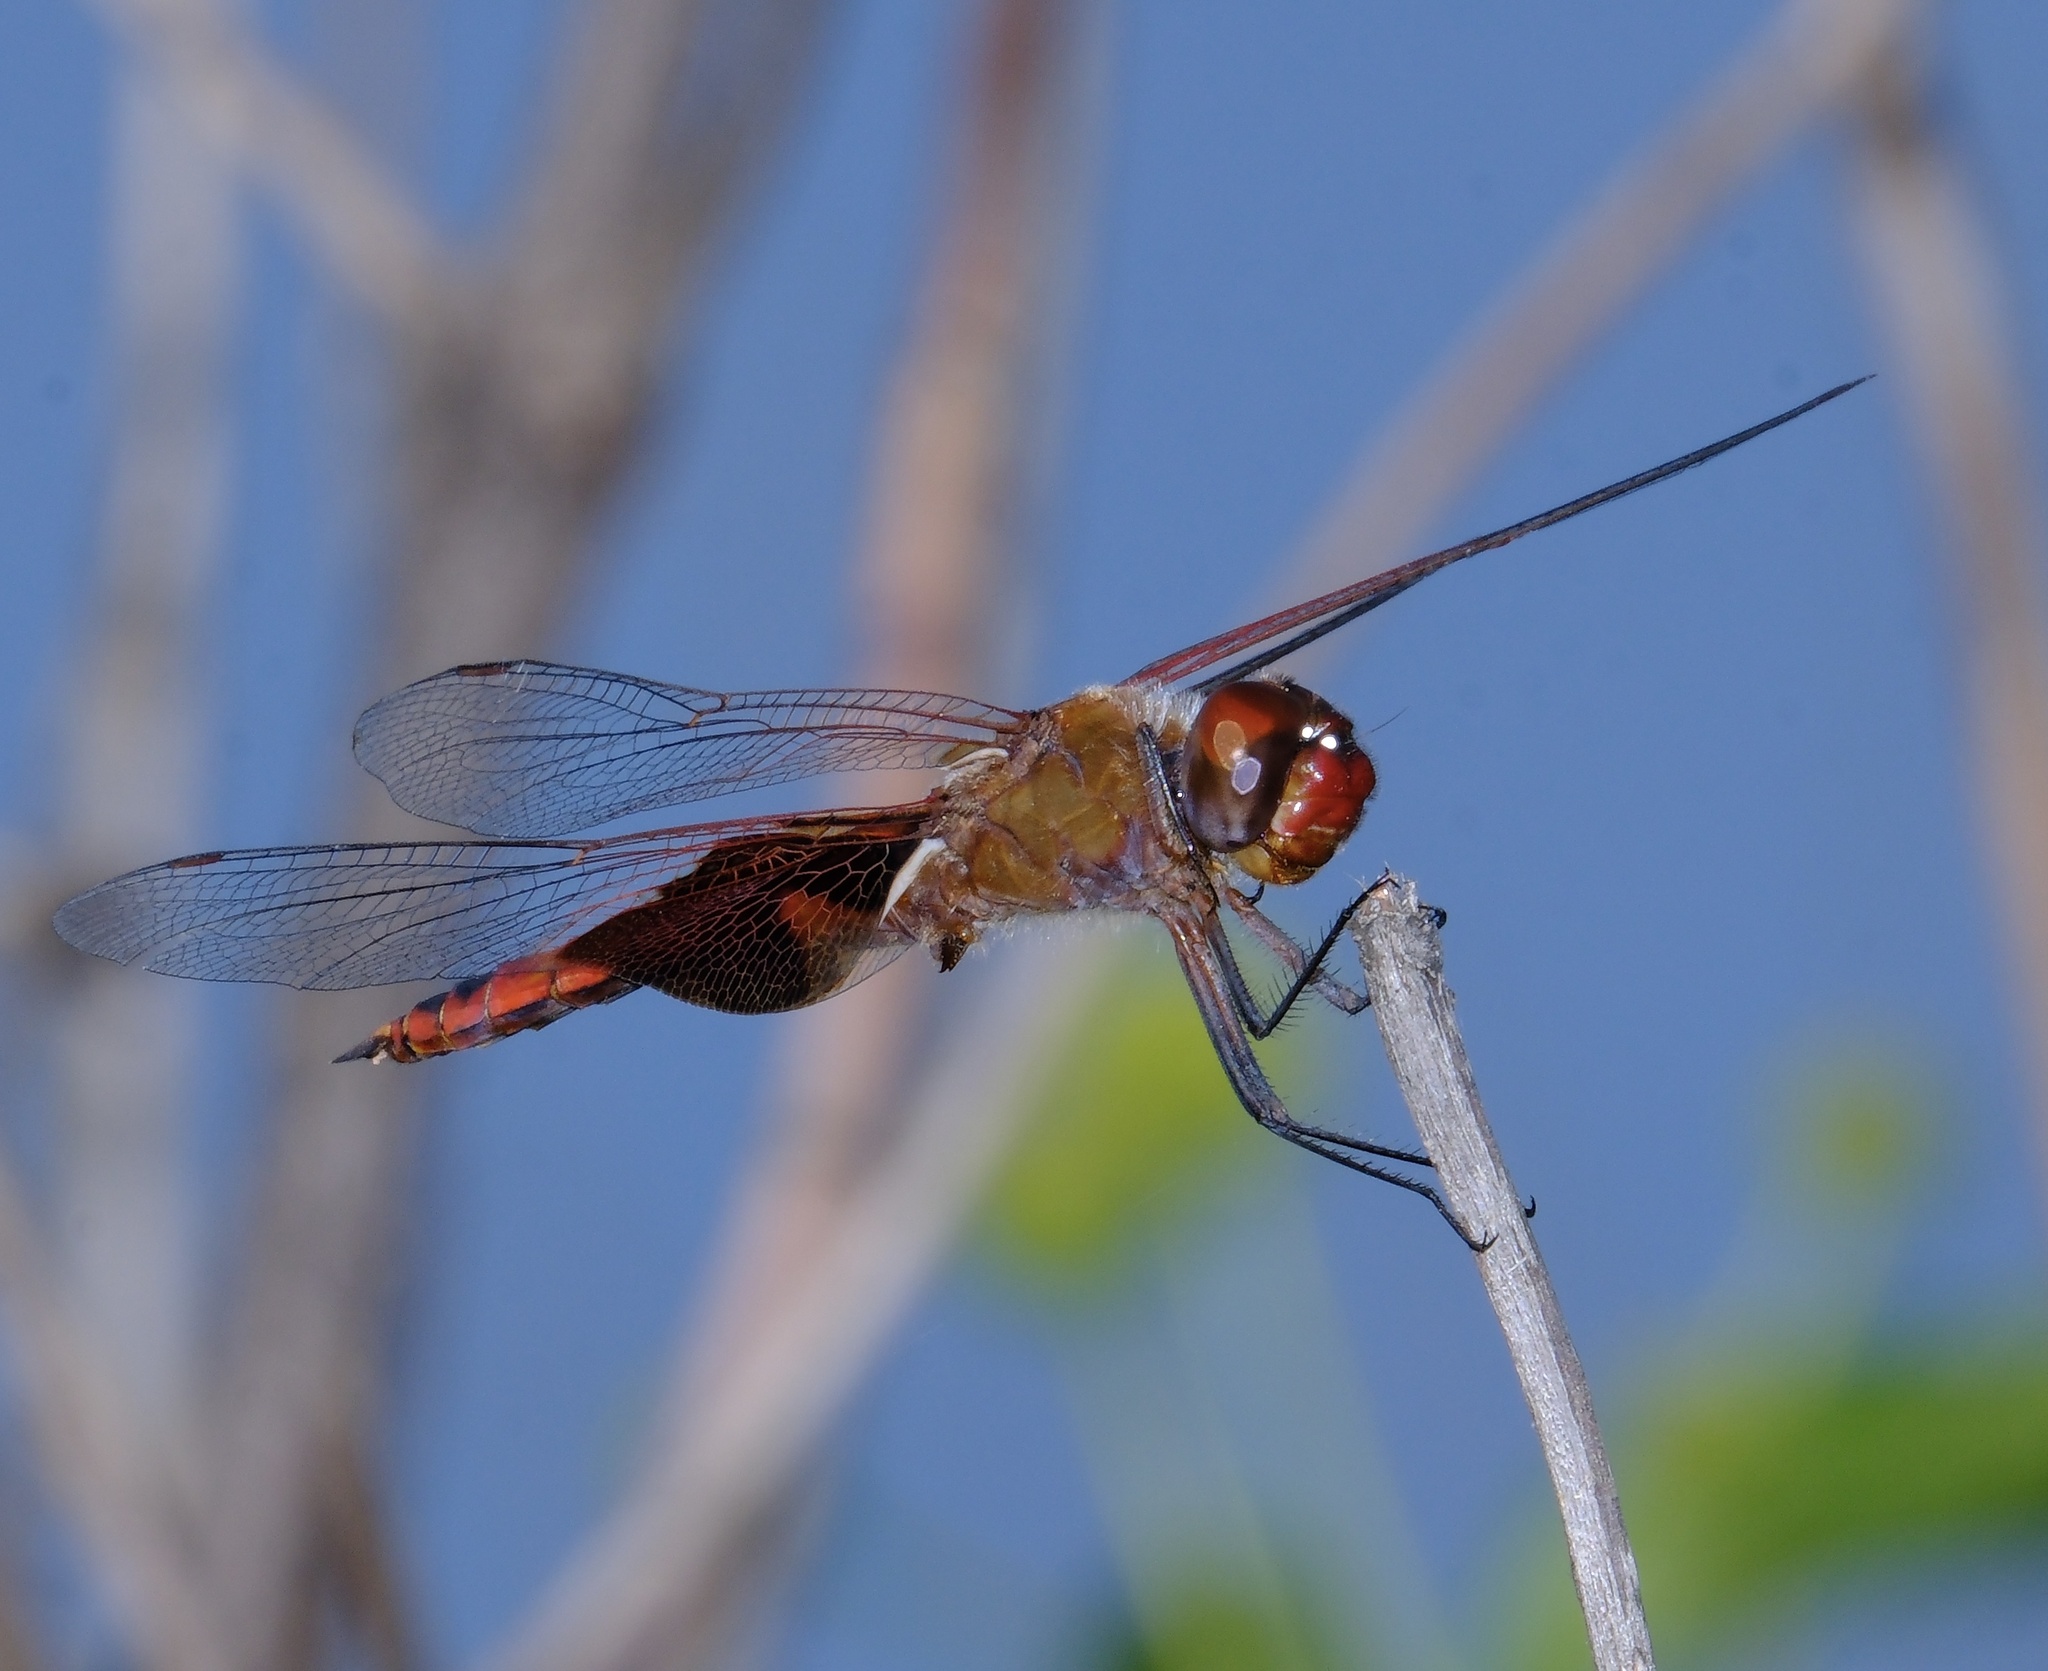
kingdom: Animalia
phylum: Arthropoda
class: Insecta
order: Odonata
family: Libellulidae
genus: Tramea
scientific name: Tramea onusta
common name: Red saddlebags
